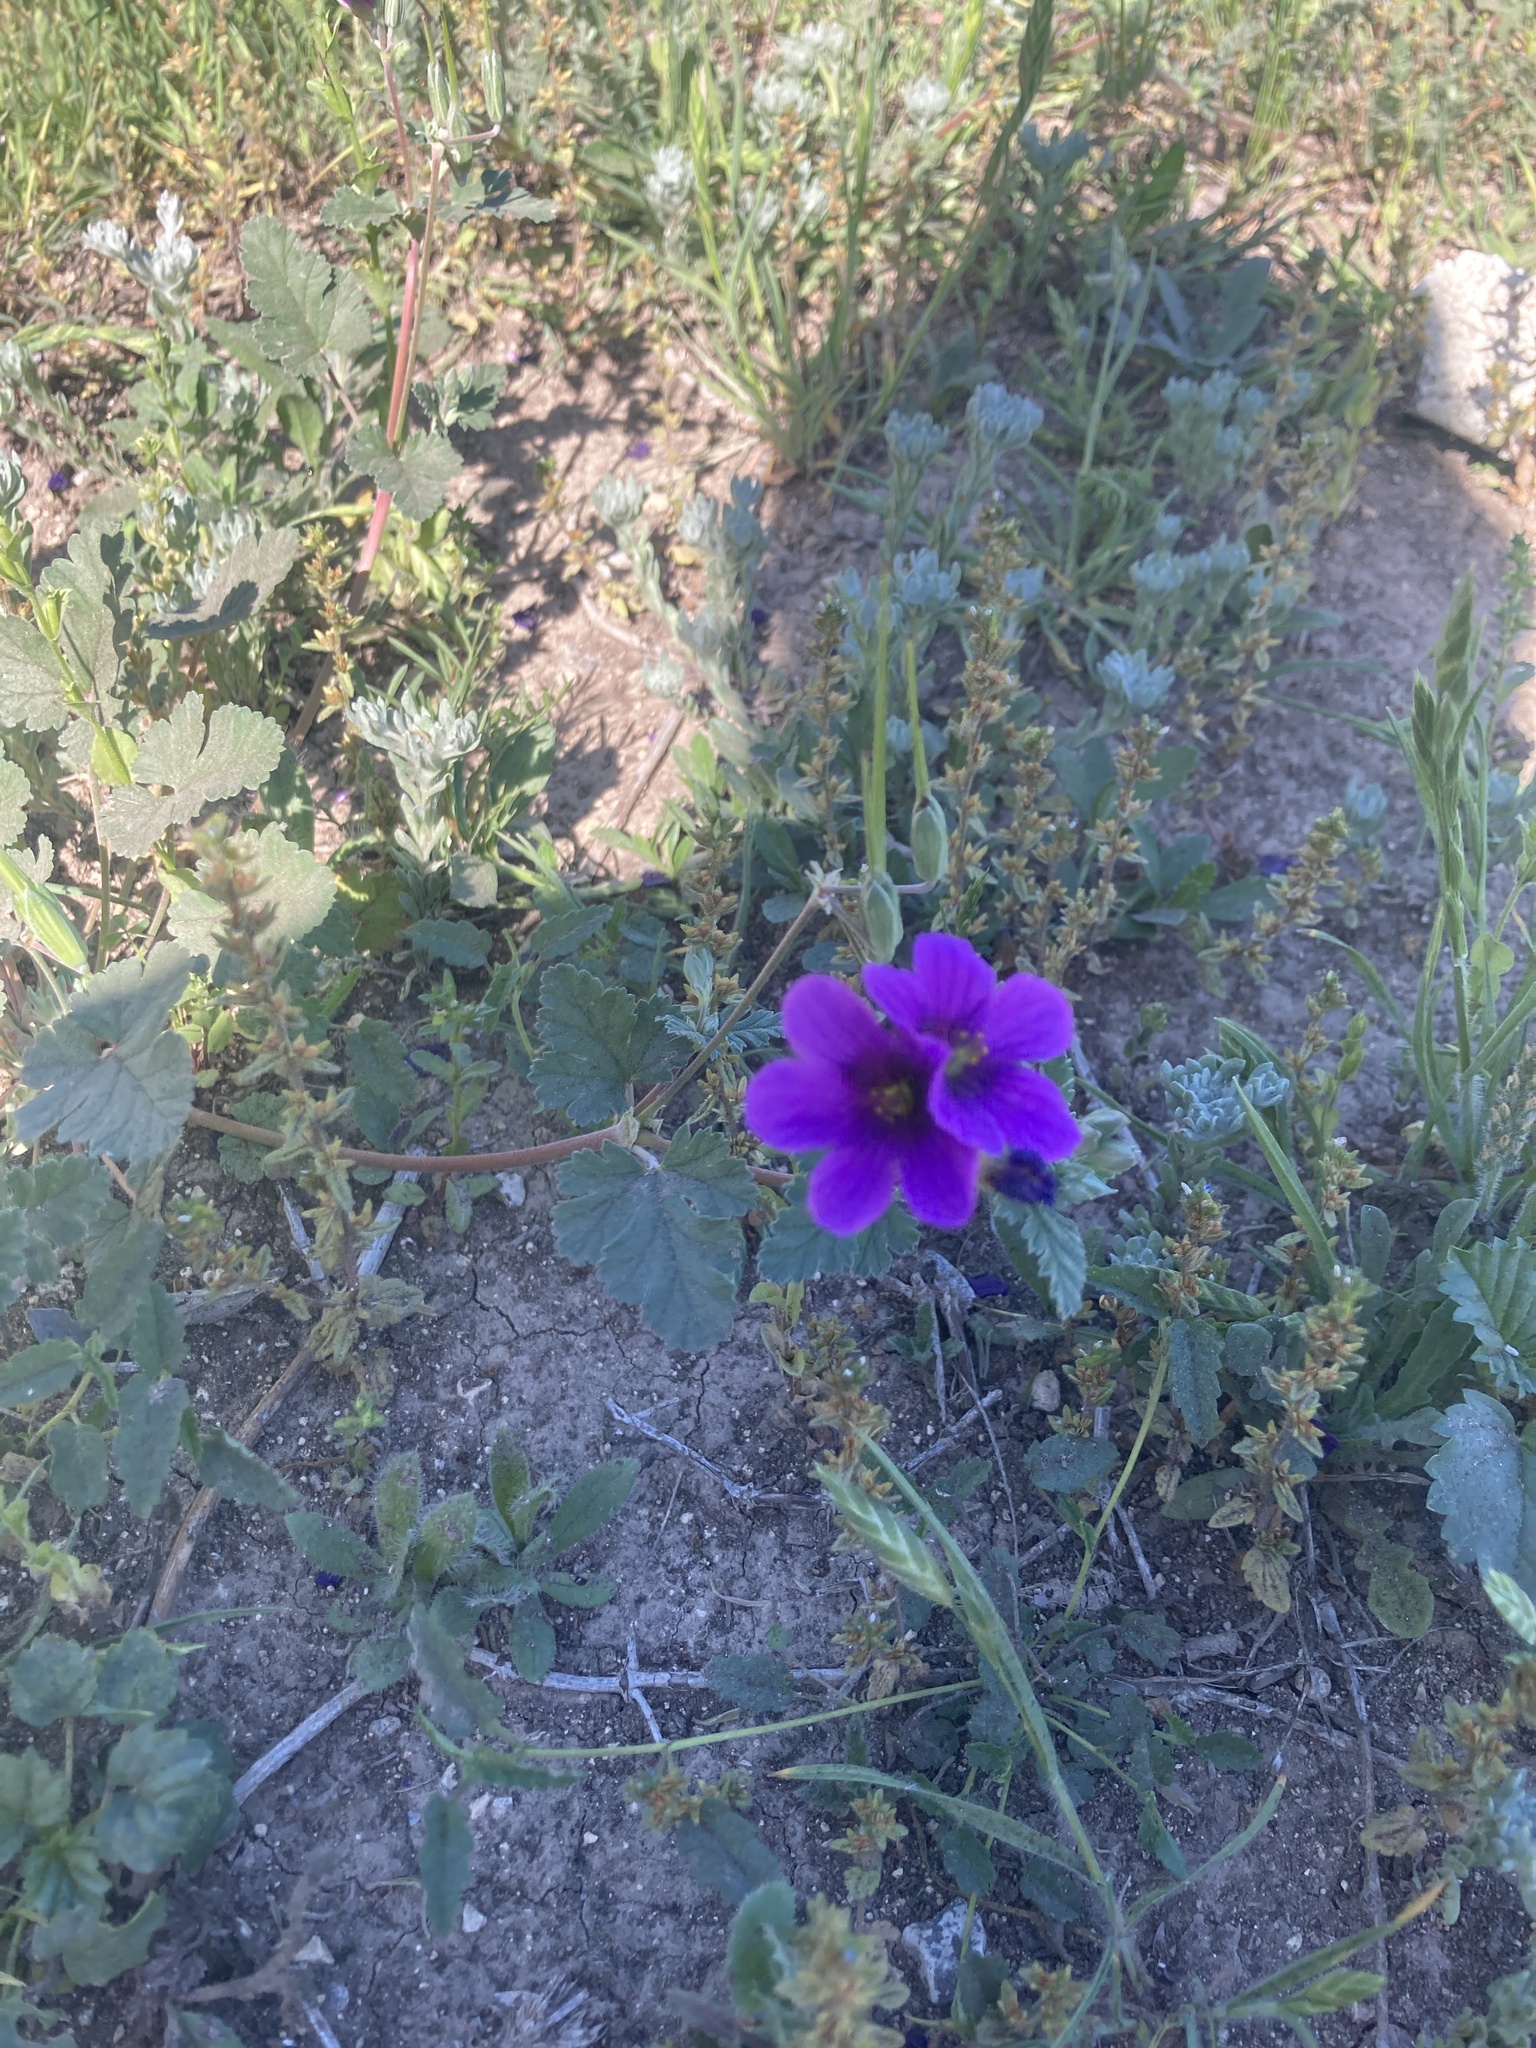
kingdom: Plantae
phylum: Tracheophyta
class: Magnoliopsida
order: Geraniales
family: Geraniaceae
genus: Erodium
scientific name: Erodium texanum
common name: Texas stork's-bill
